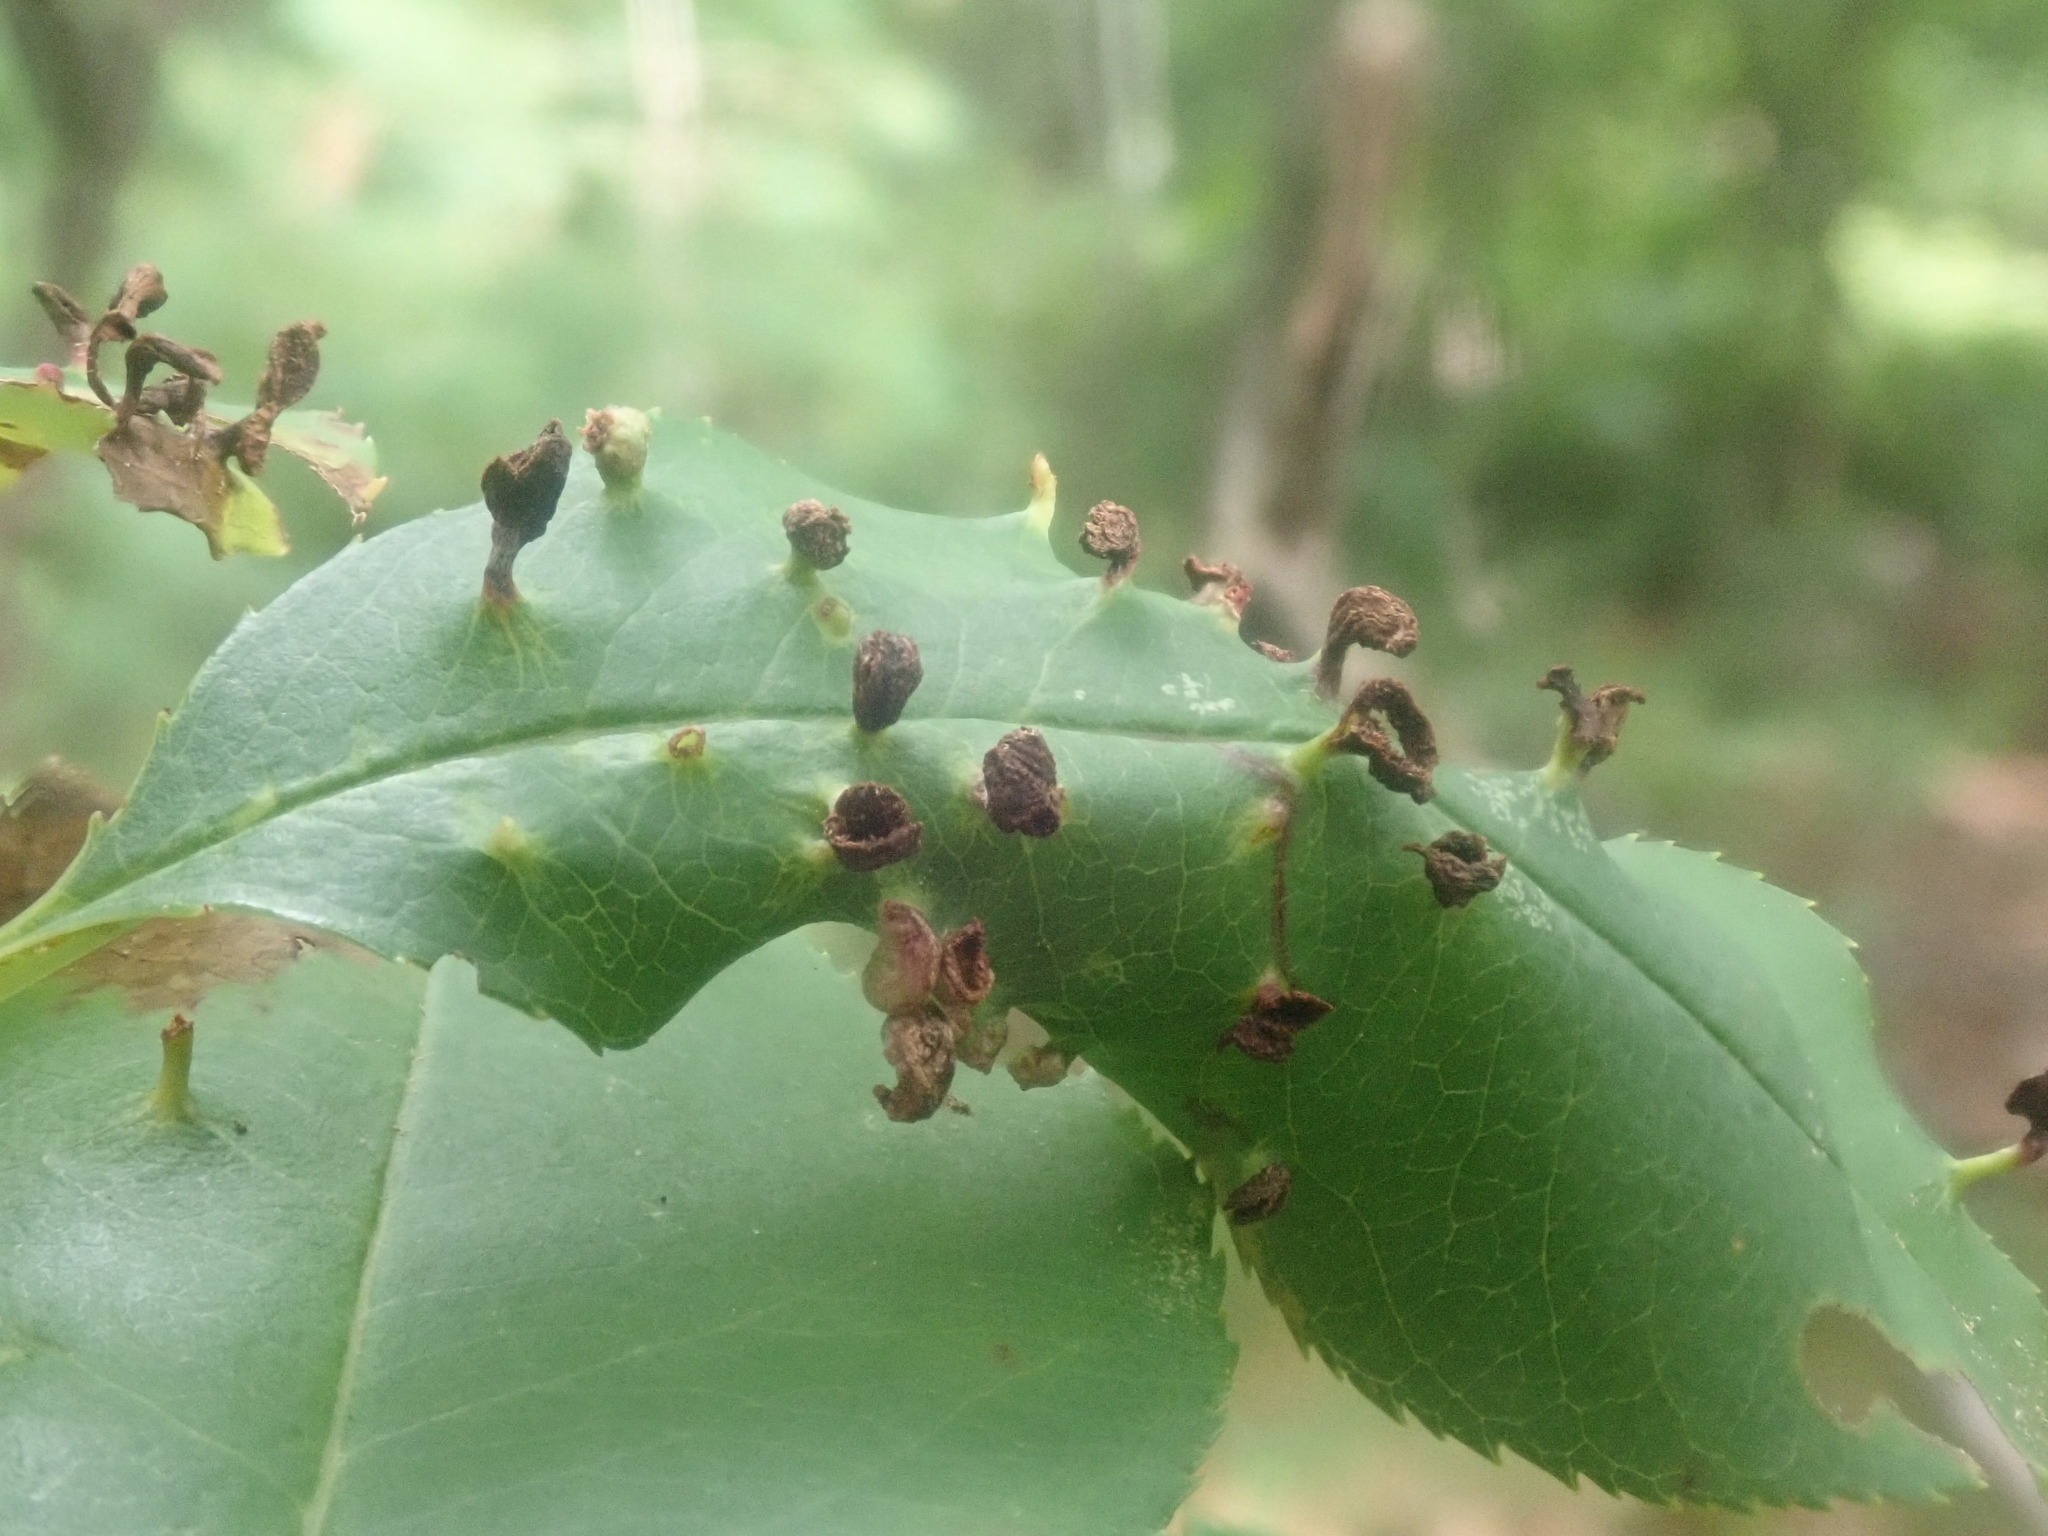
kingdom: Animalia
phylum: Arthropoda
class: Arachnida
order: Trombidiformes
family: Eriophyidae
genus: Eriophyes
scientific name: Eriophyes
